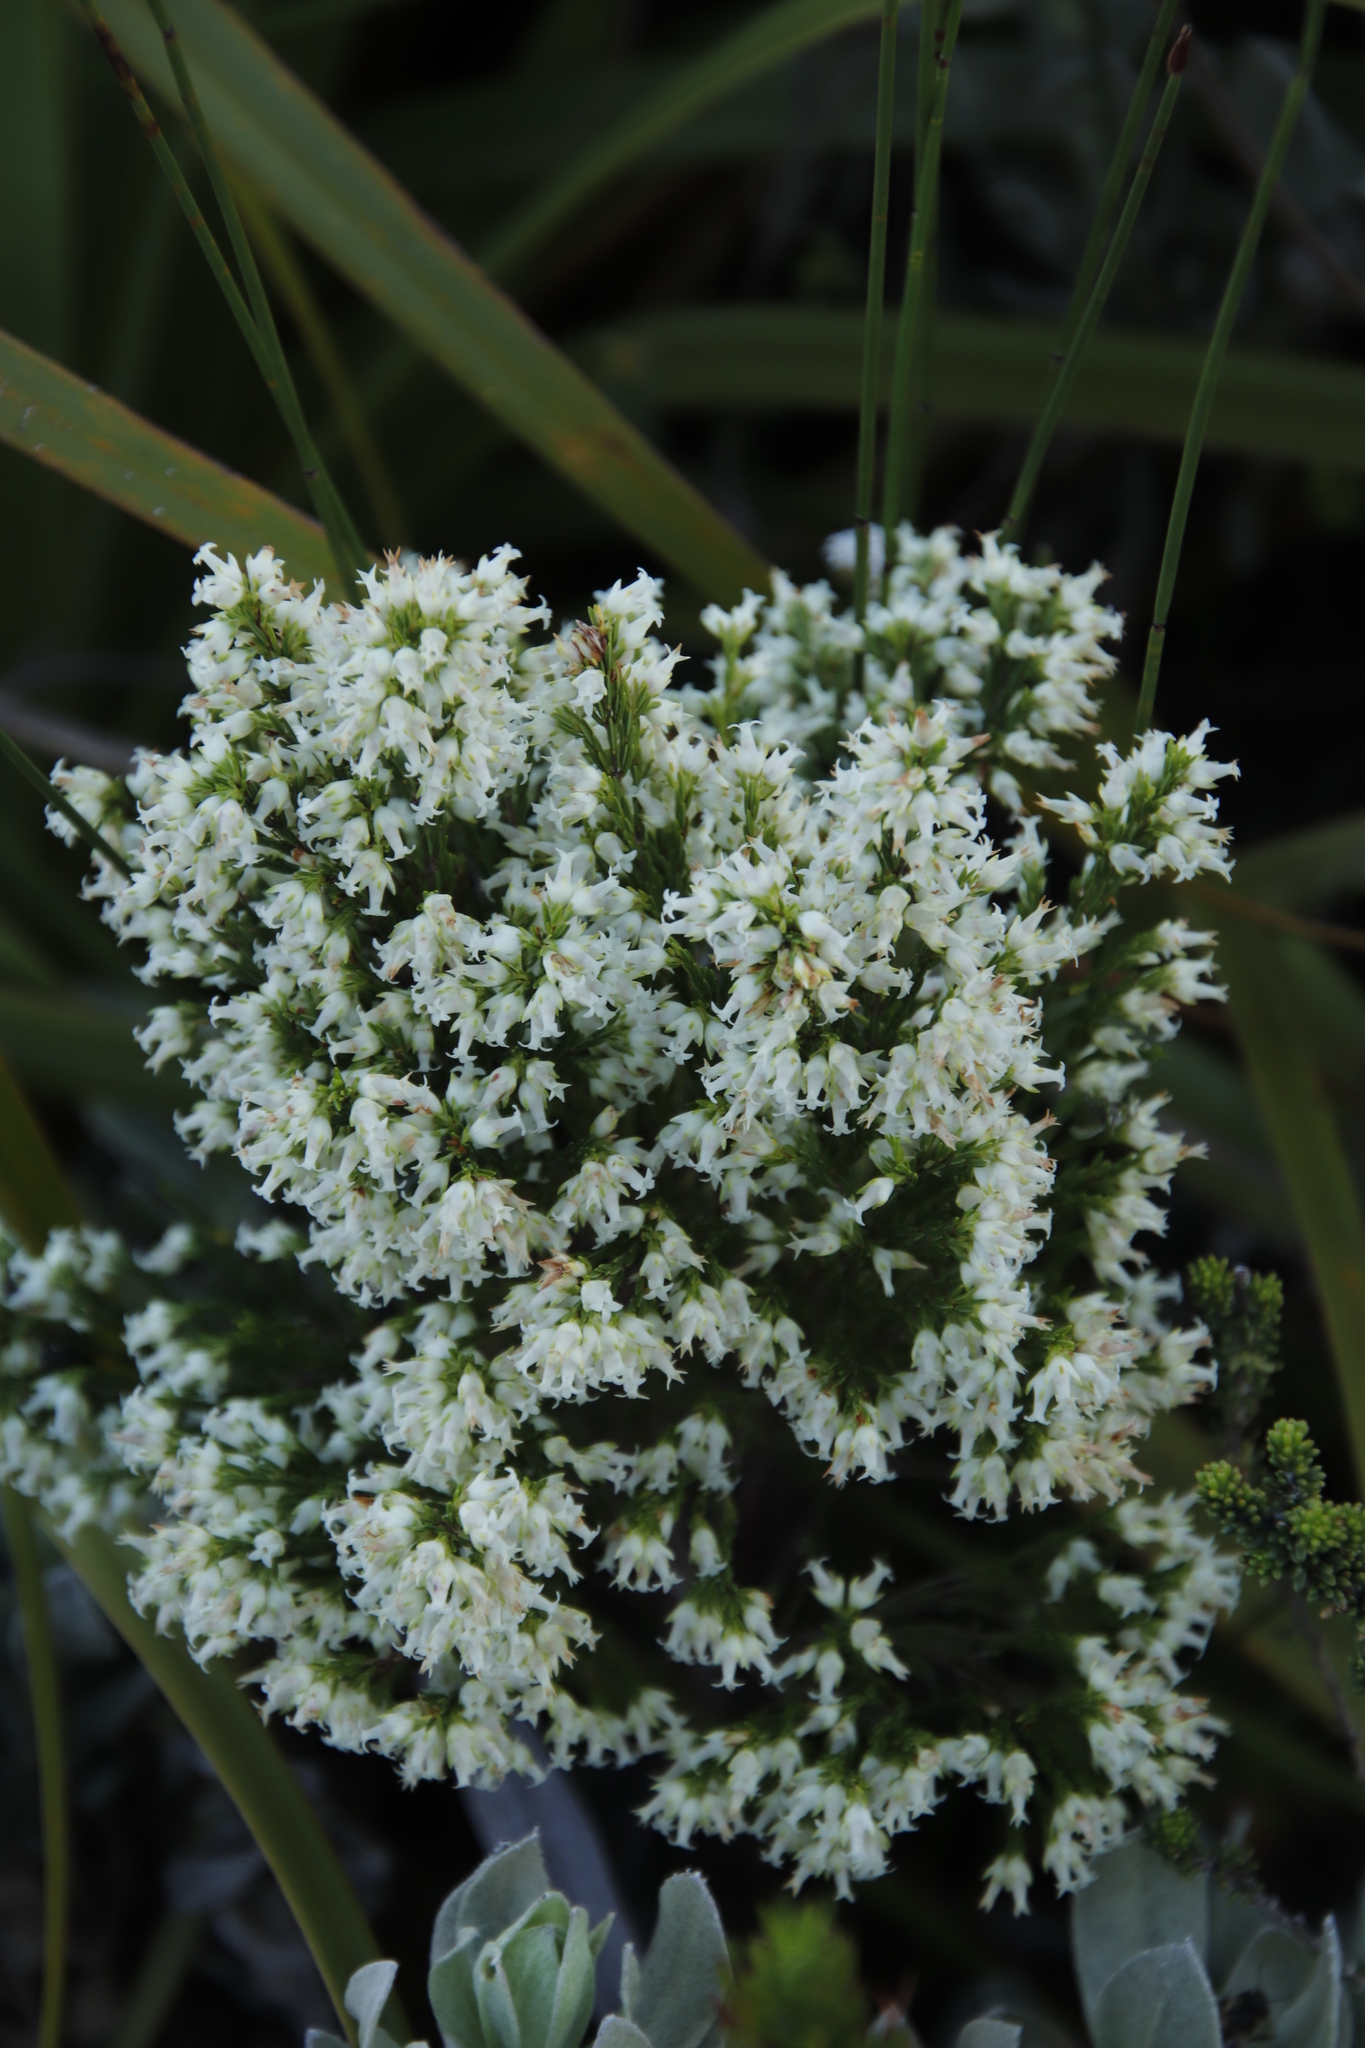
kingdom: Plantae
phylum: Tracheophyta
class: Magnoliopsida
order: Ericales
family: Ericaceae
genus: Erica
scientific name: Erica lutea
